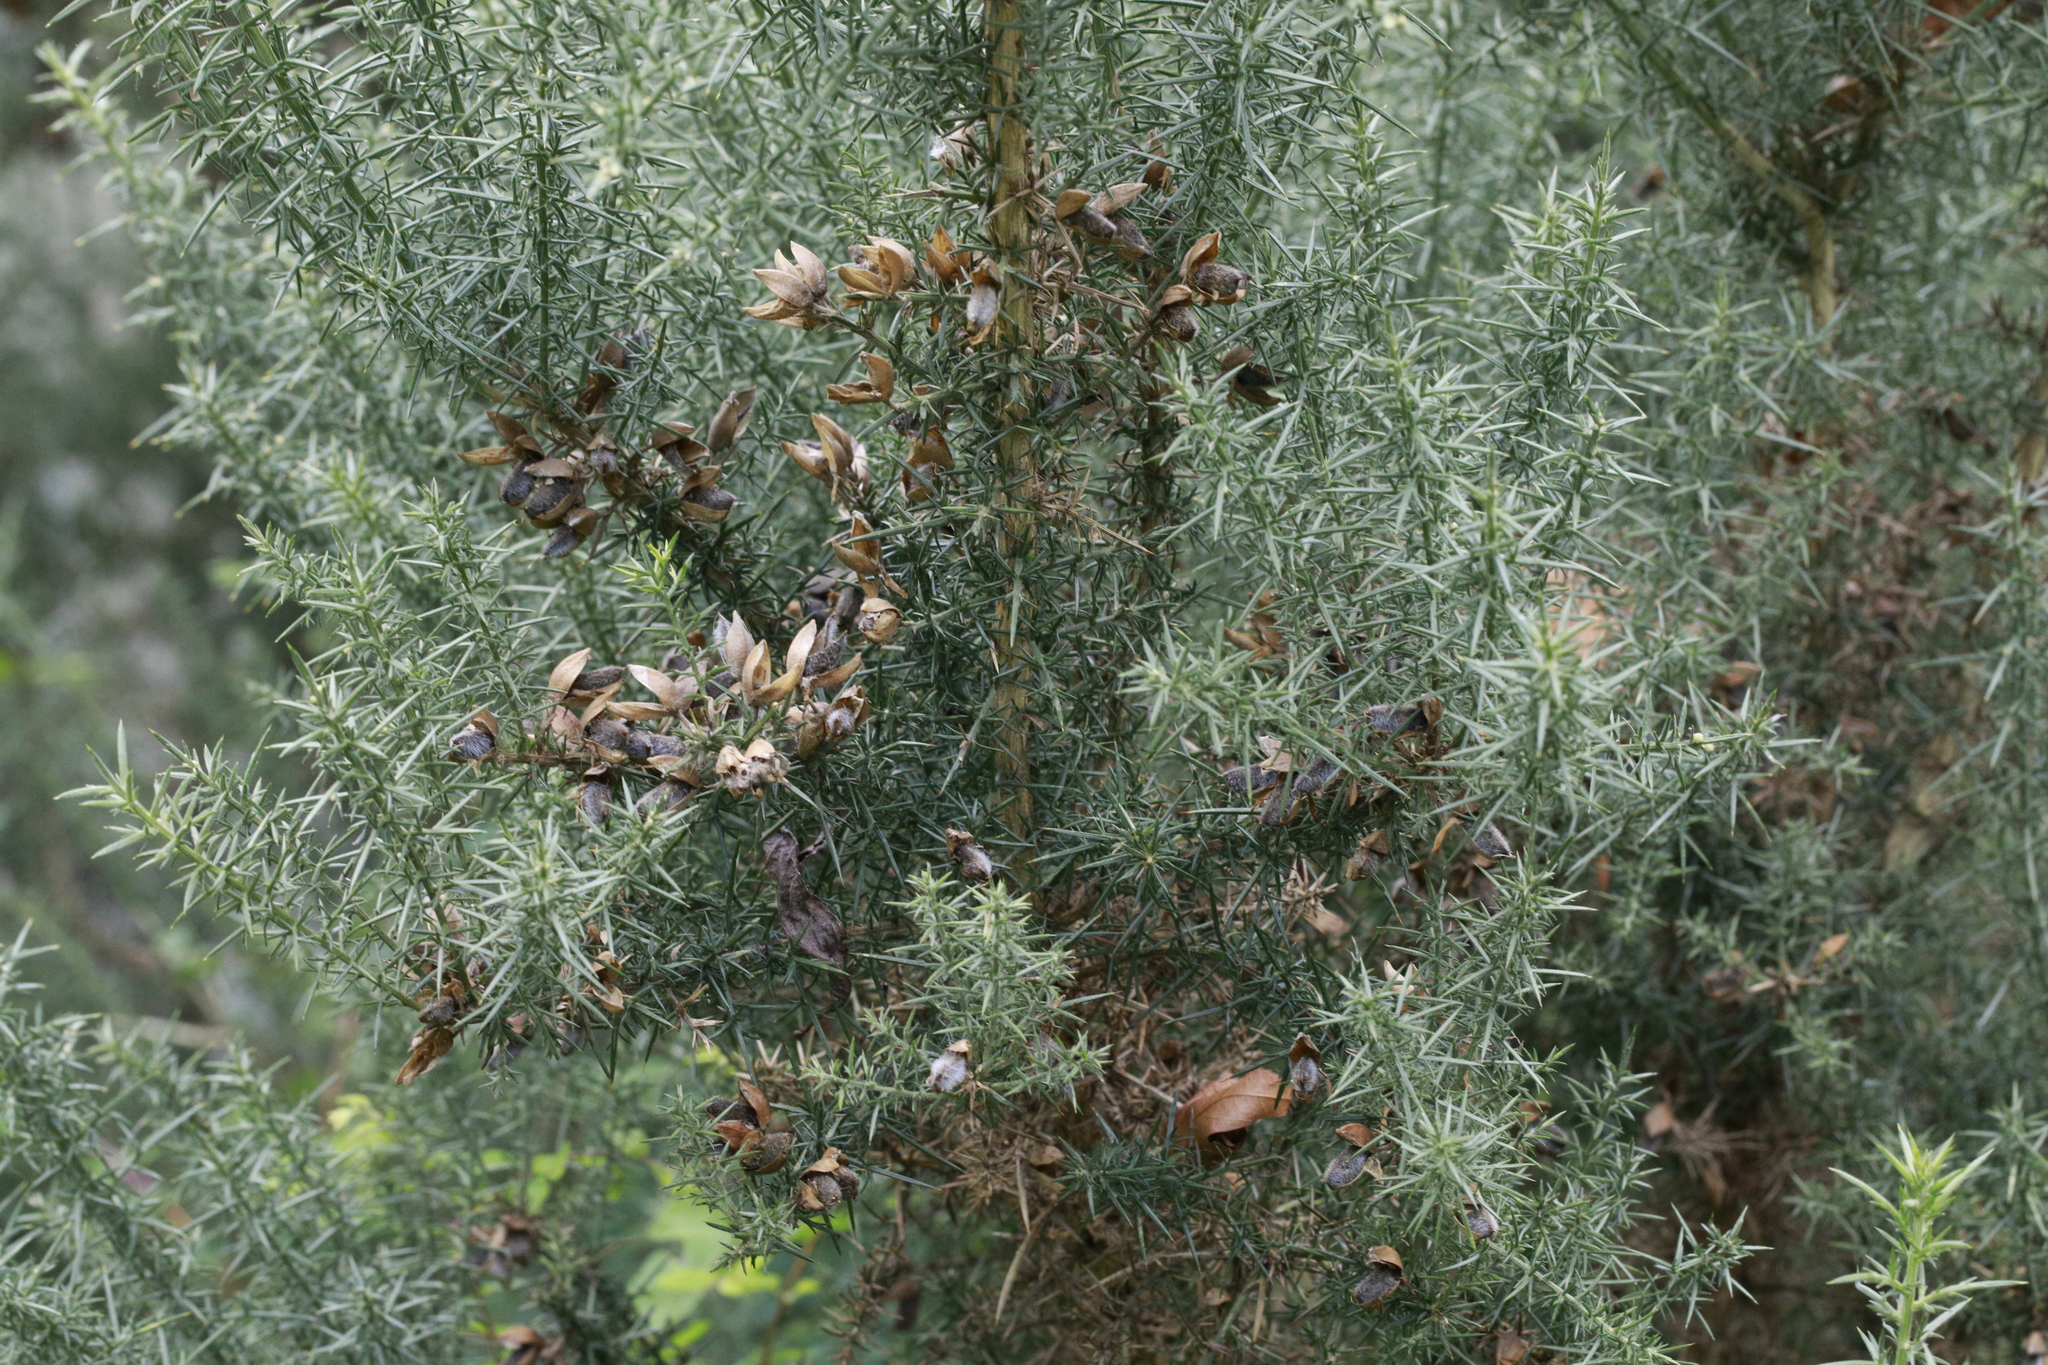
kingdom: Plantae
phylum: Tracheophyta
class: Magnoliopsida
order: Fabales
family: Fabaceae
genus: Ulex
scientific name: Ulex europaeus
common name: Common gorse
